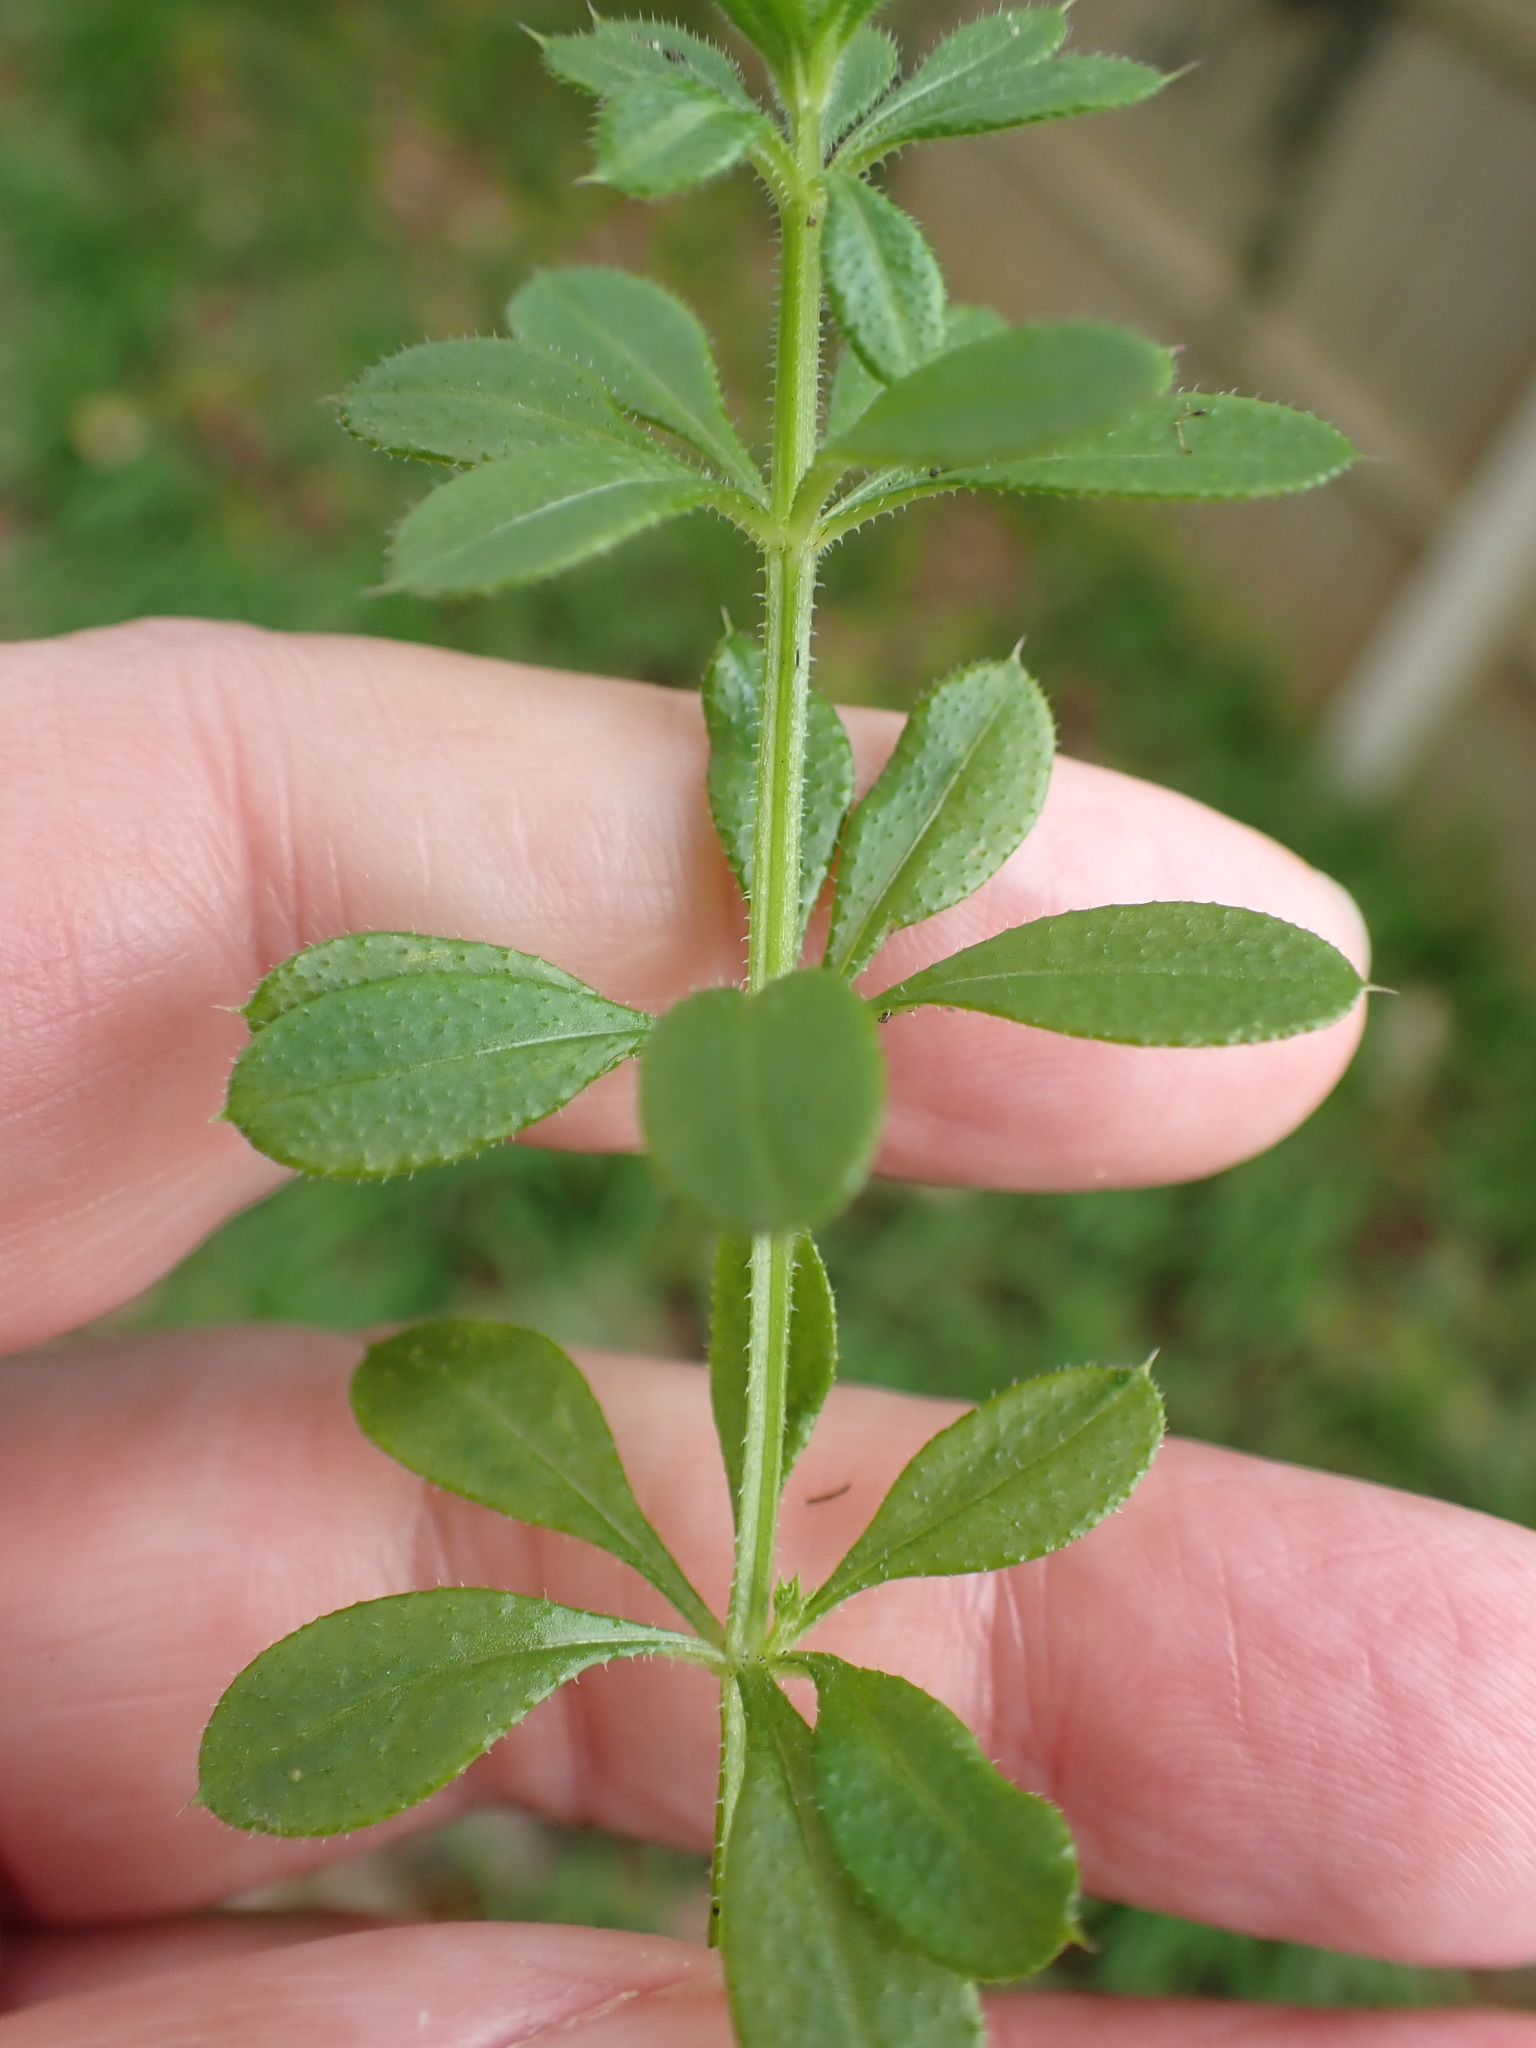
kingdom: Plantae
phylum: Tracheophyta
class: Magnoliopsida
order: Gentianales
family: Rubiaceae
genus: Galium
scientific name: Galium aparine
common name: Cleavers
